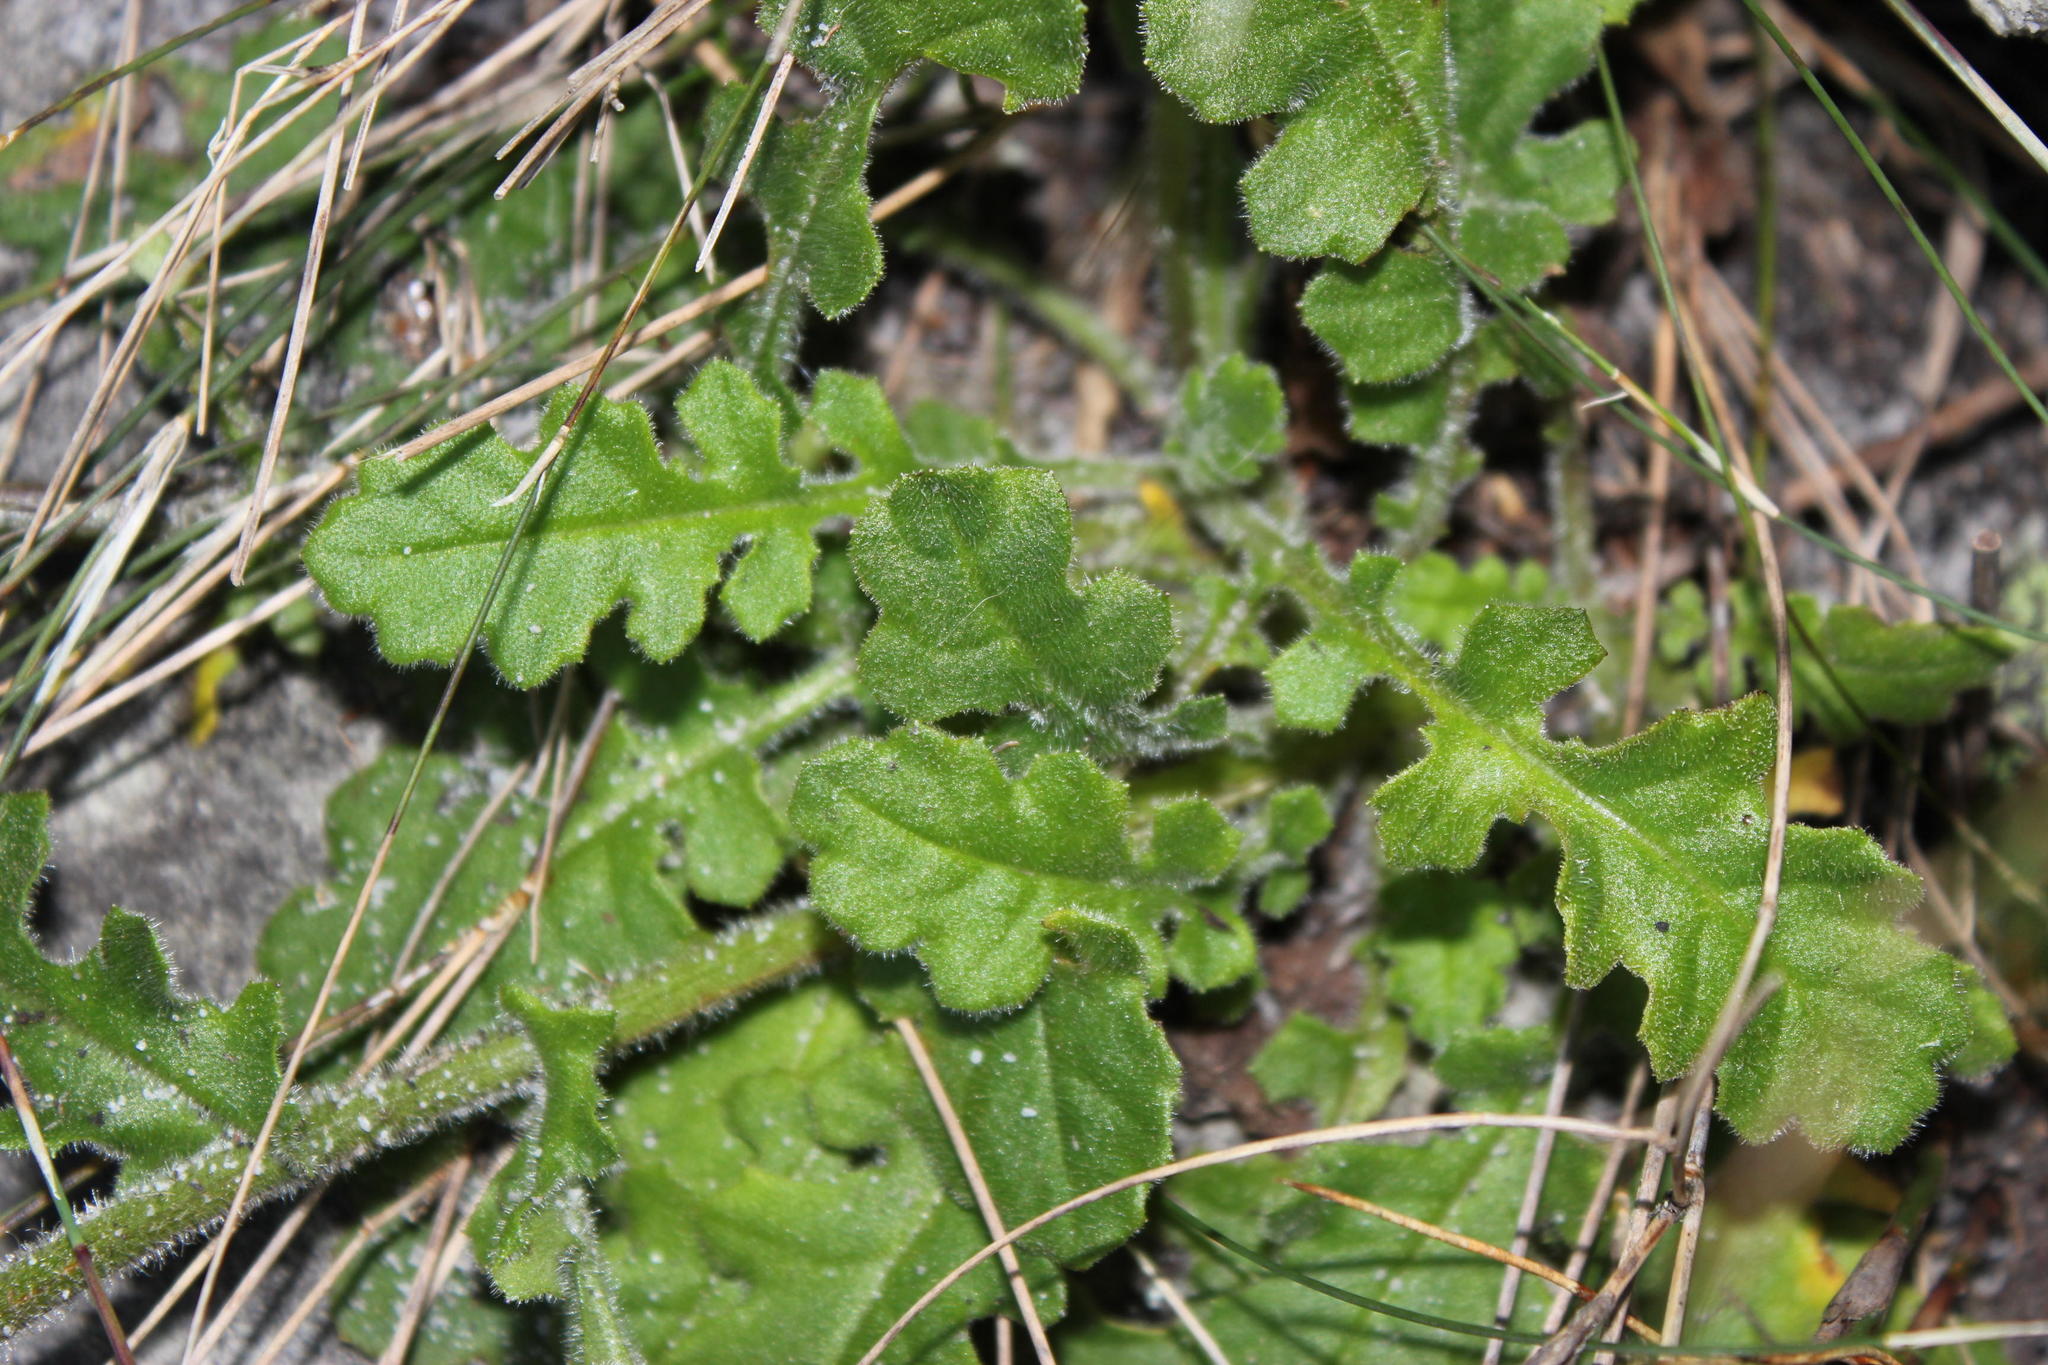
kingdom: Plantae
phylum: Tracheophyta
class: Magnoliopsida
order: Asterales
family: Asteraceae
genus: Senecio
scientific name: Senecio speciosus
